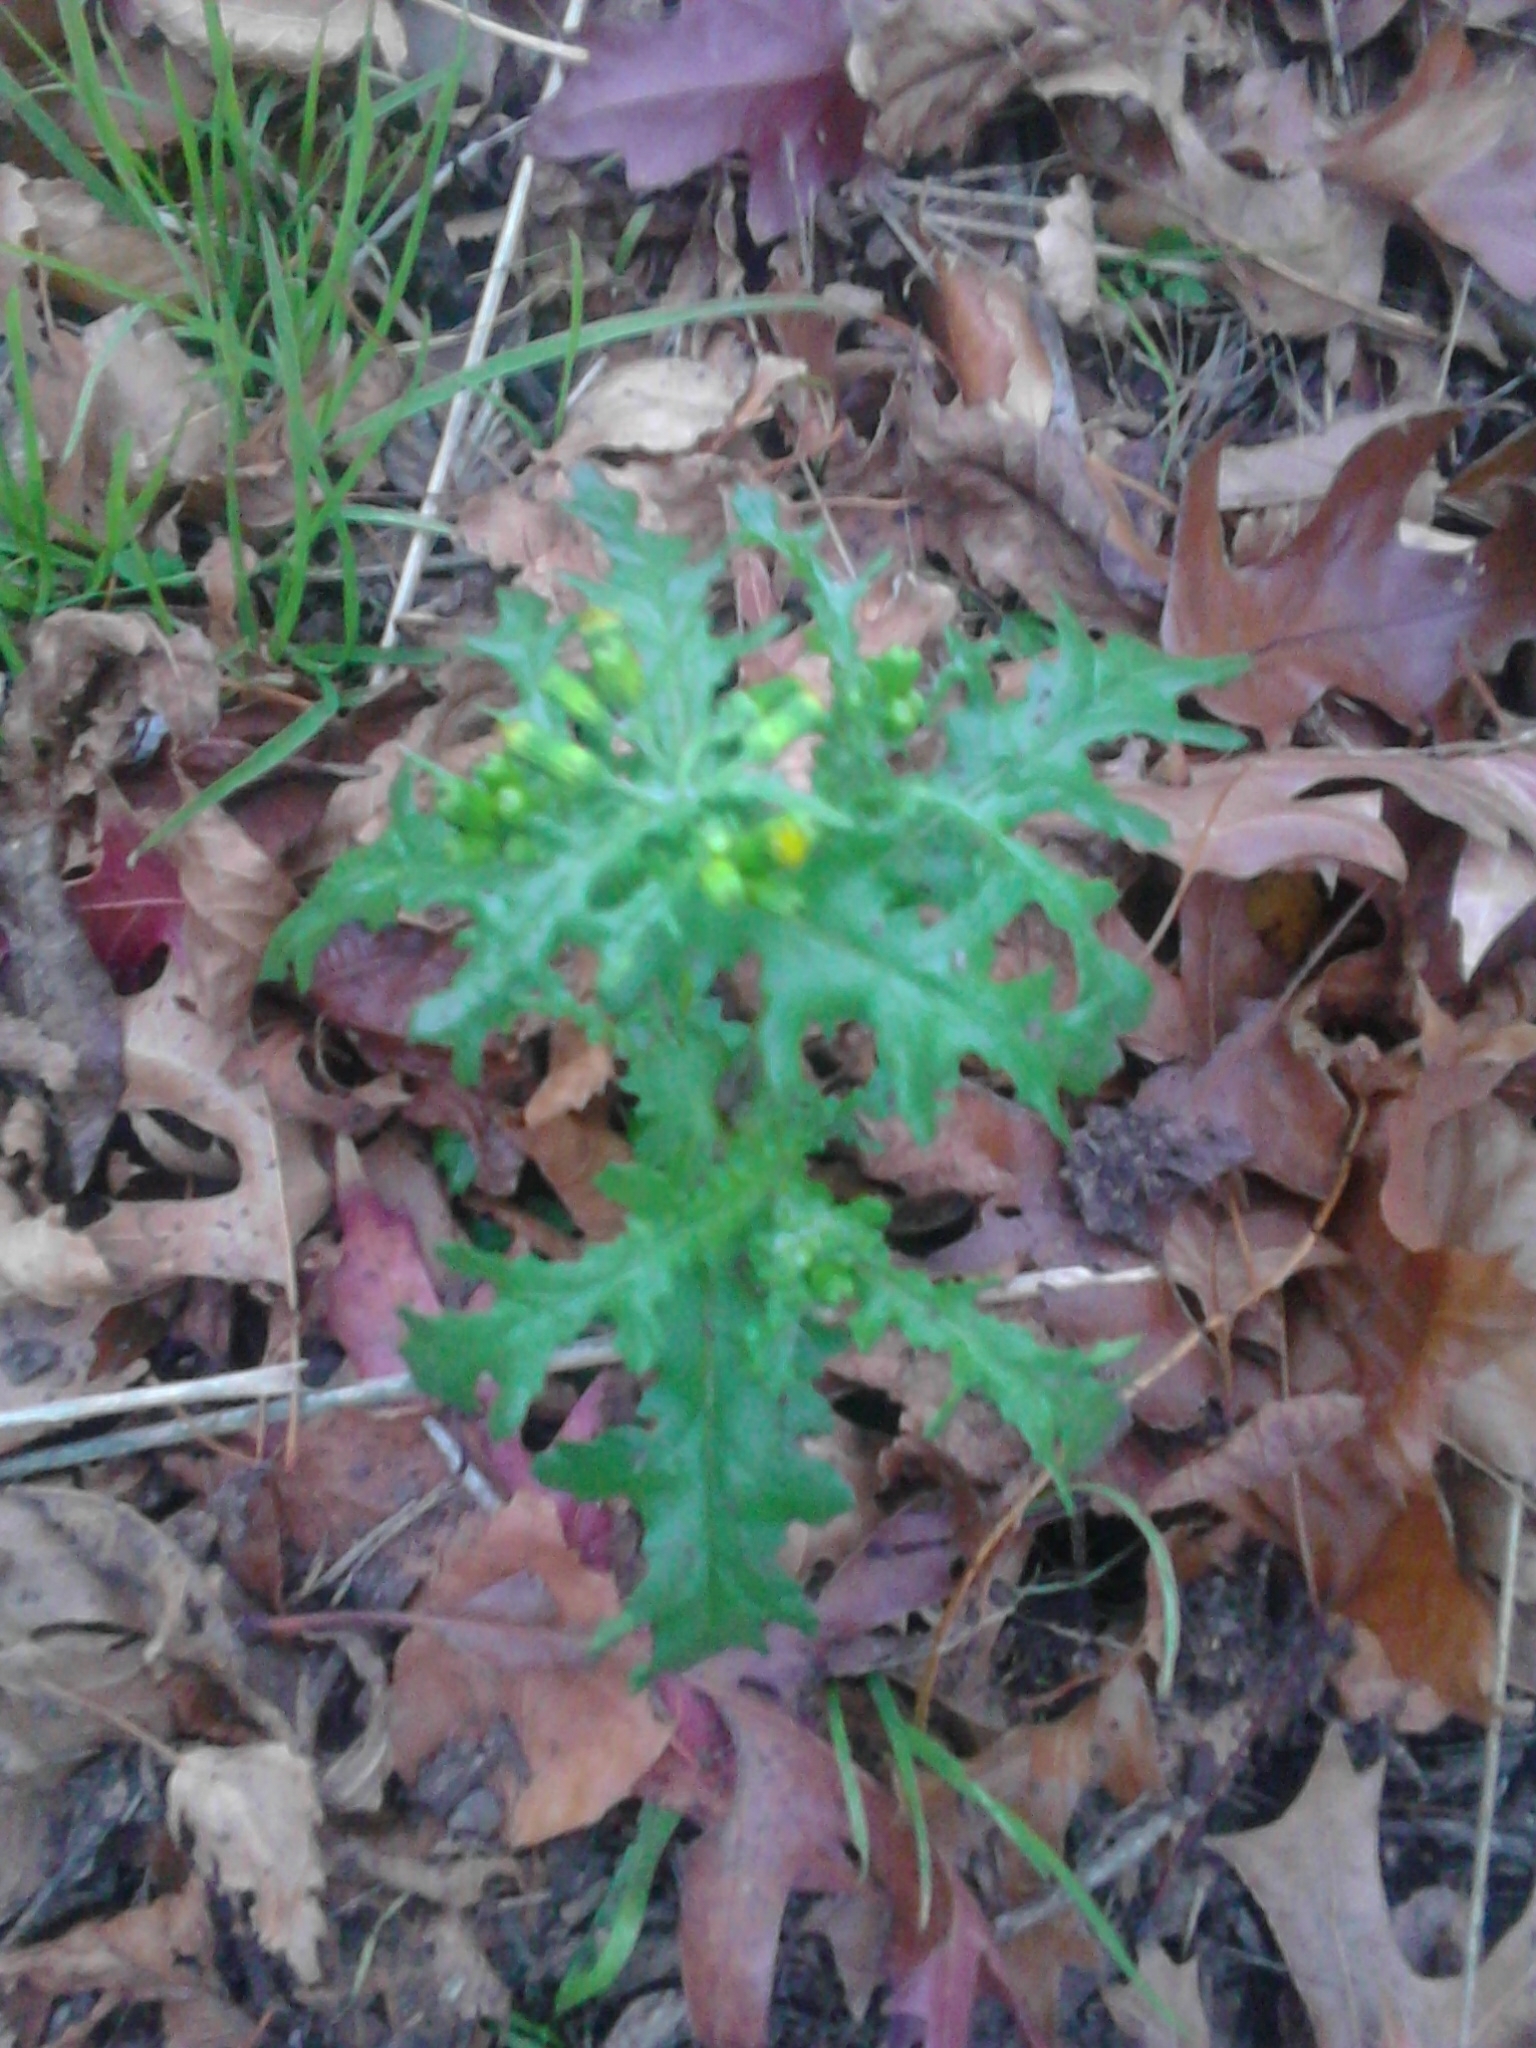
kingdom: Plantae
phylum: Tracheophyta
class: Magnoliopsida
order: Asterales
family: Asteraceae
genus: Senecio
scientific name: Senecio vulgaris
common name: Old-man-in-the-spring
